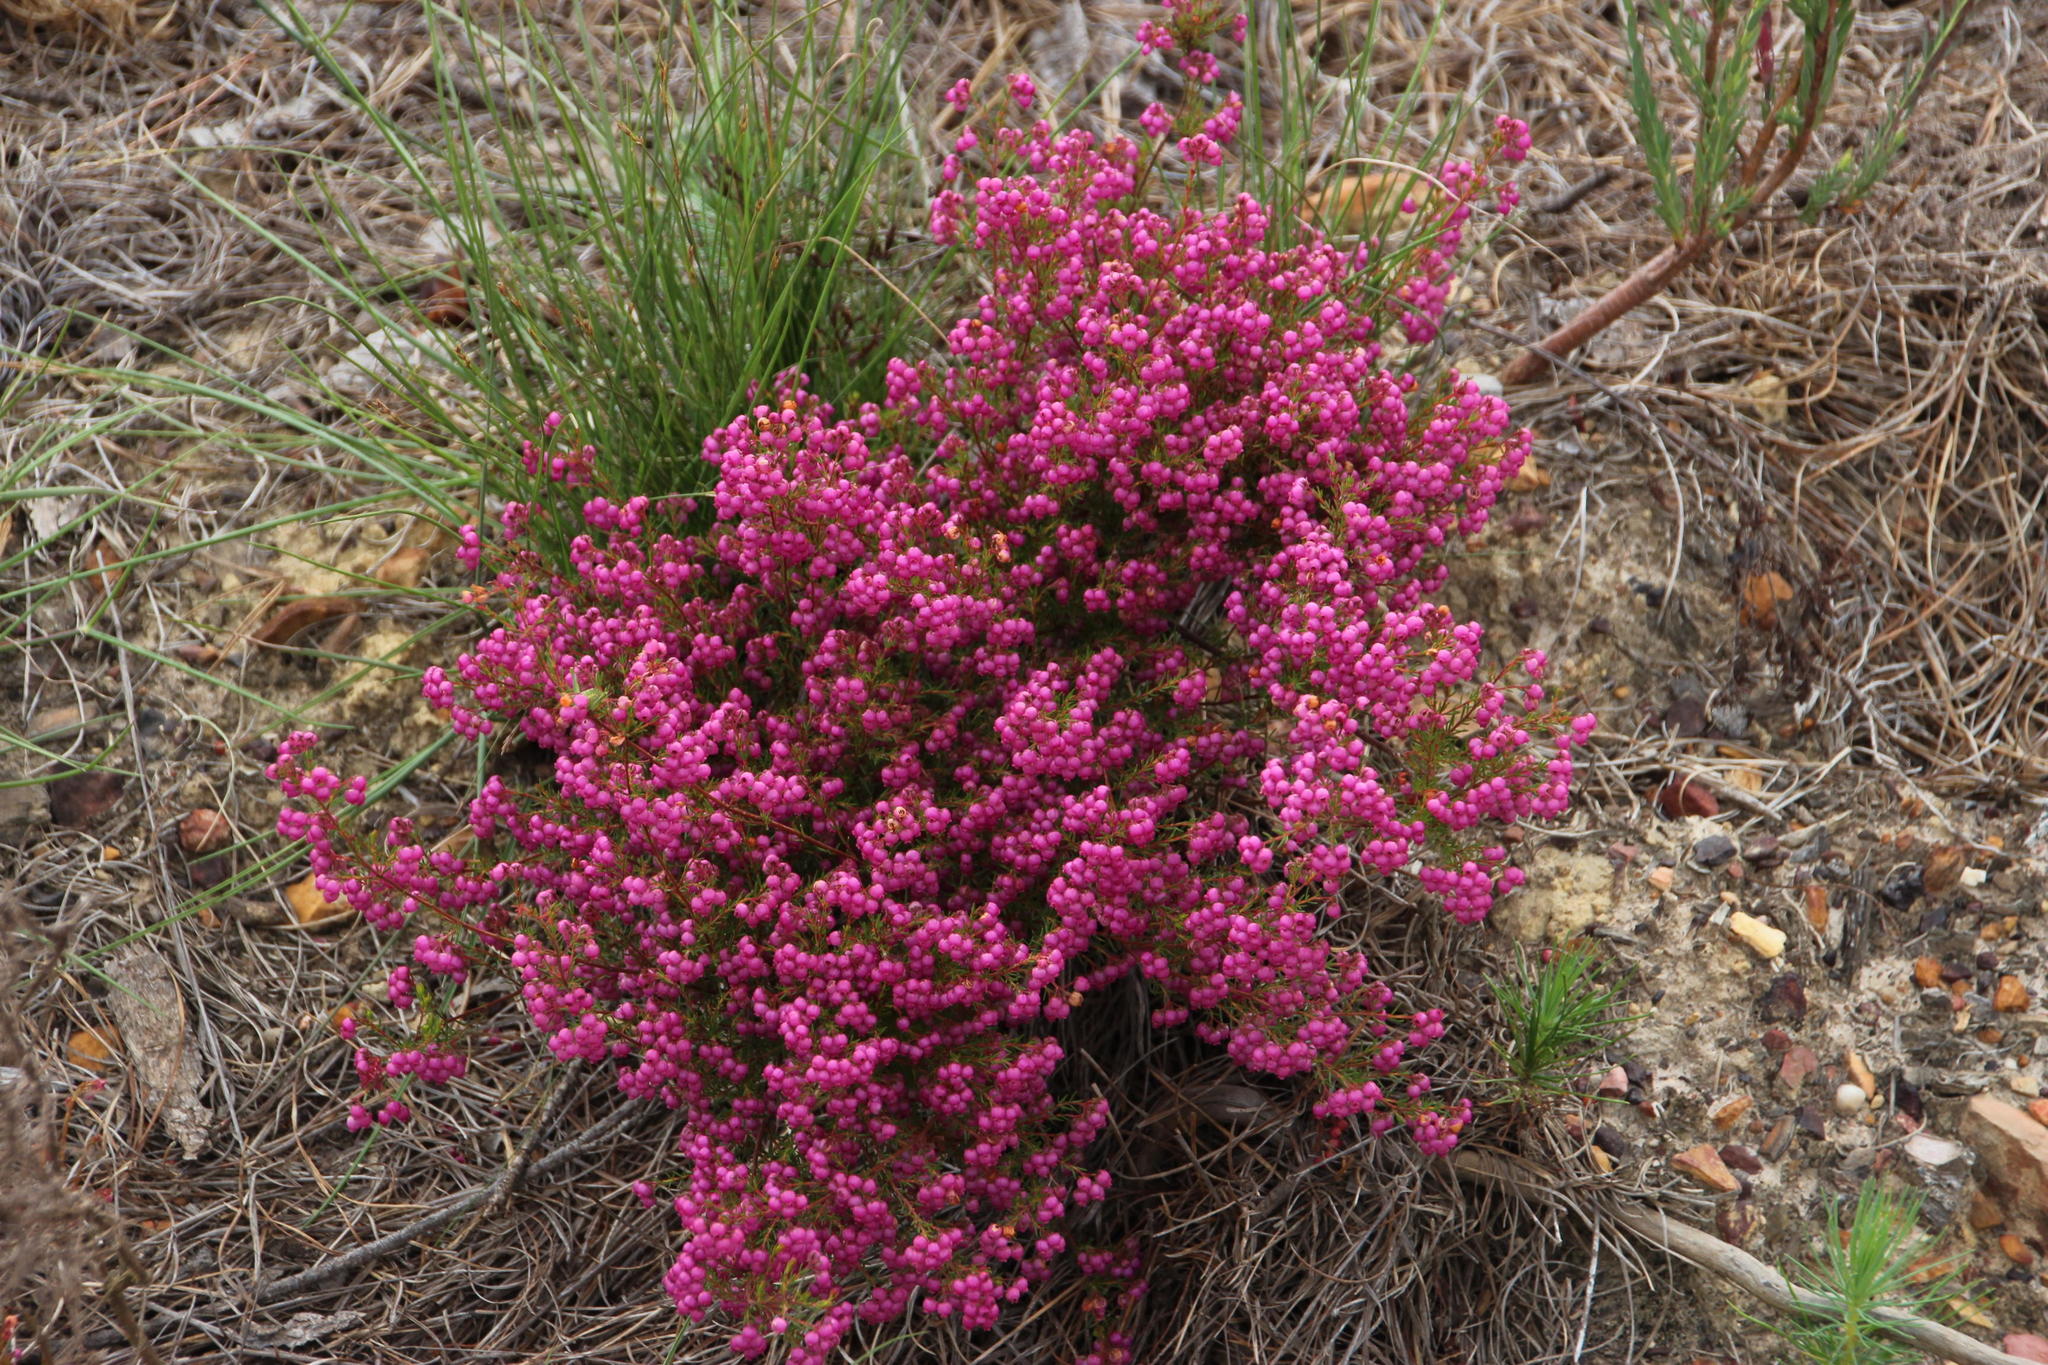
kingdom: Plantae
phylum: Tracheophyta
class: Magnoliopsida
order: Ericales
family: Ericaceae
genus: Erica
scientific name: Erica multumbellifera
